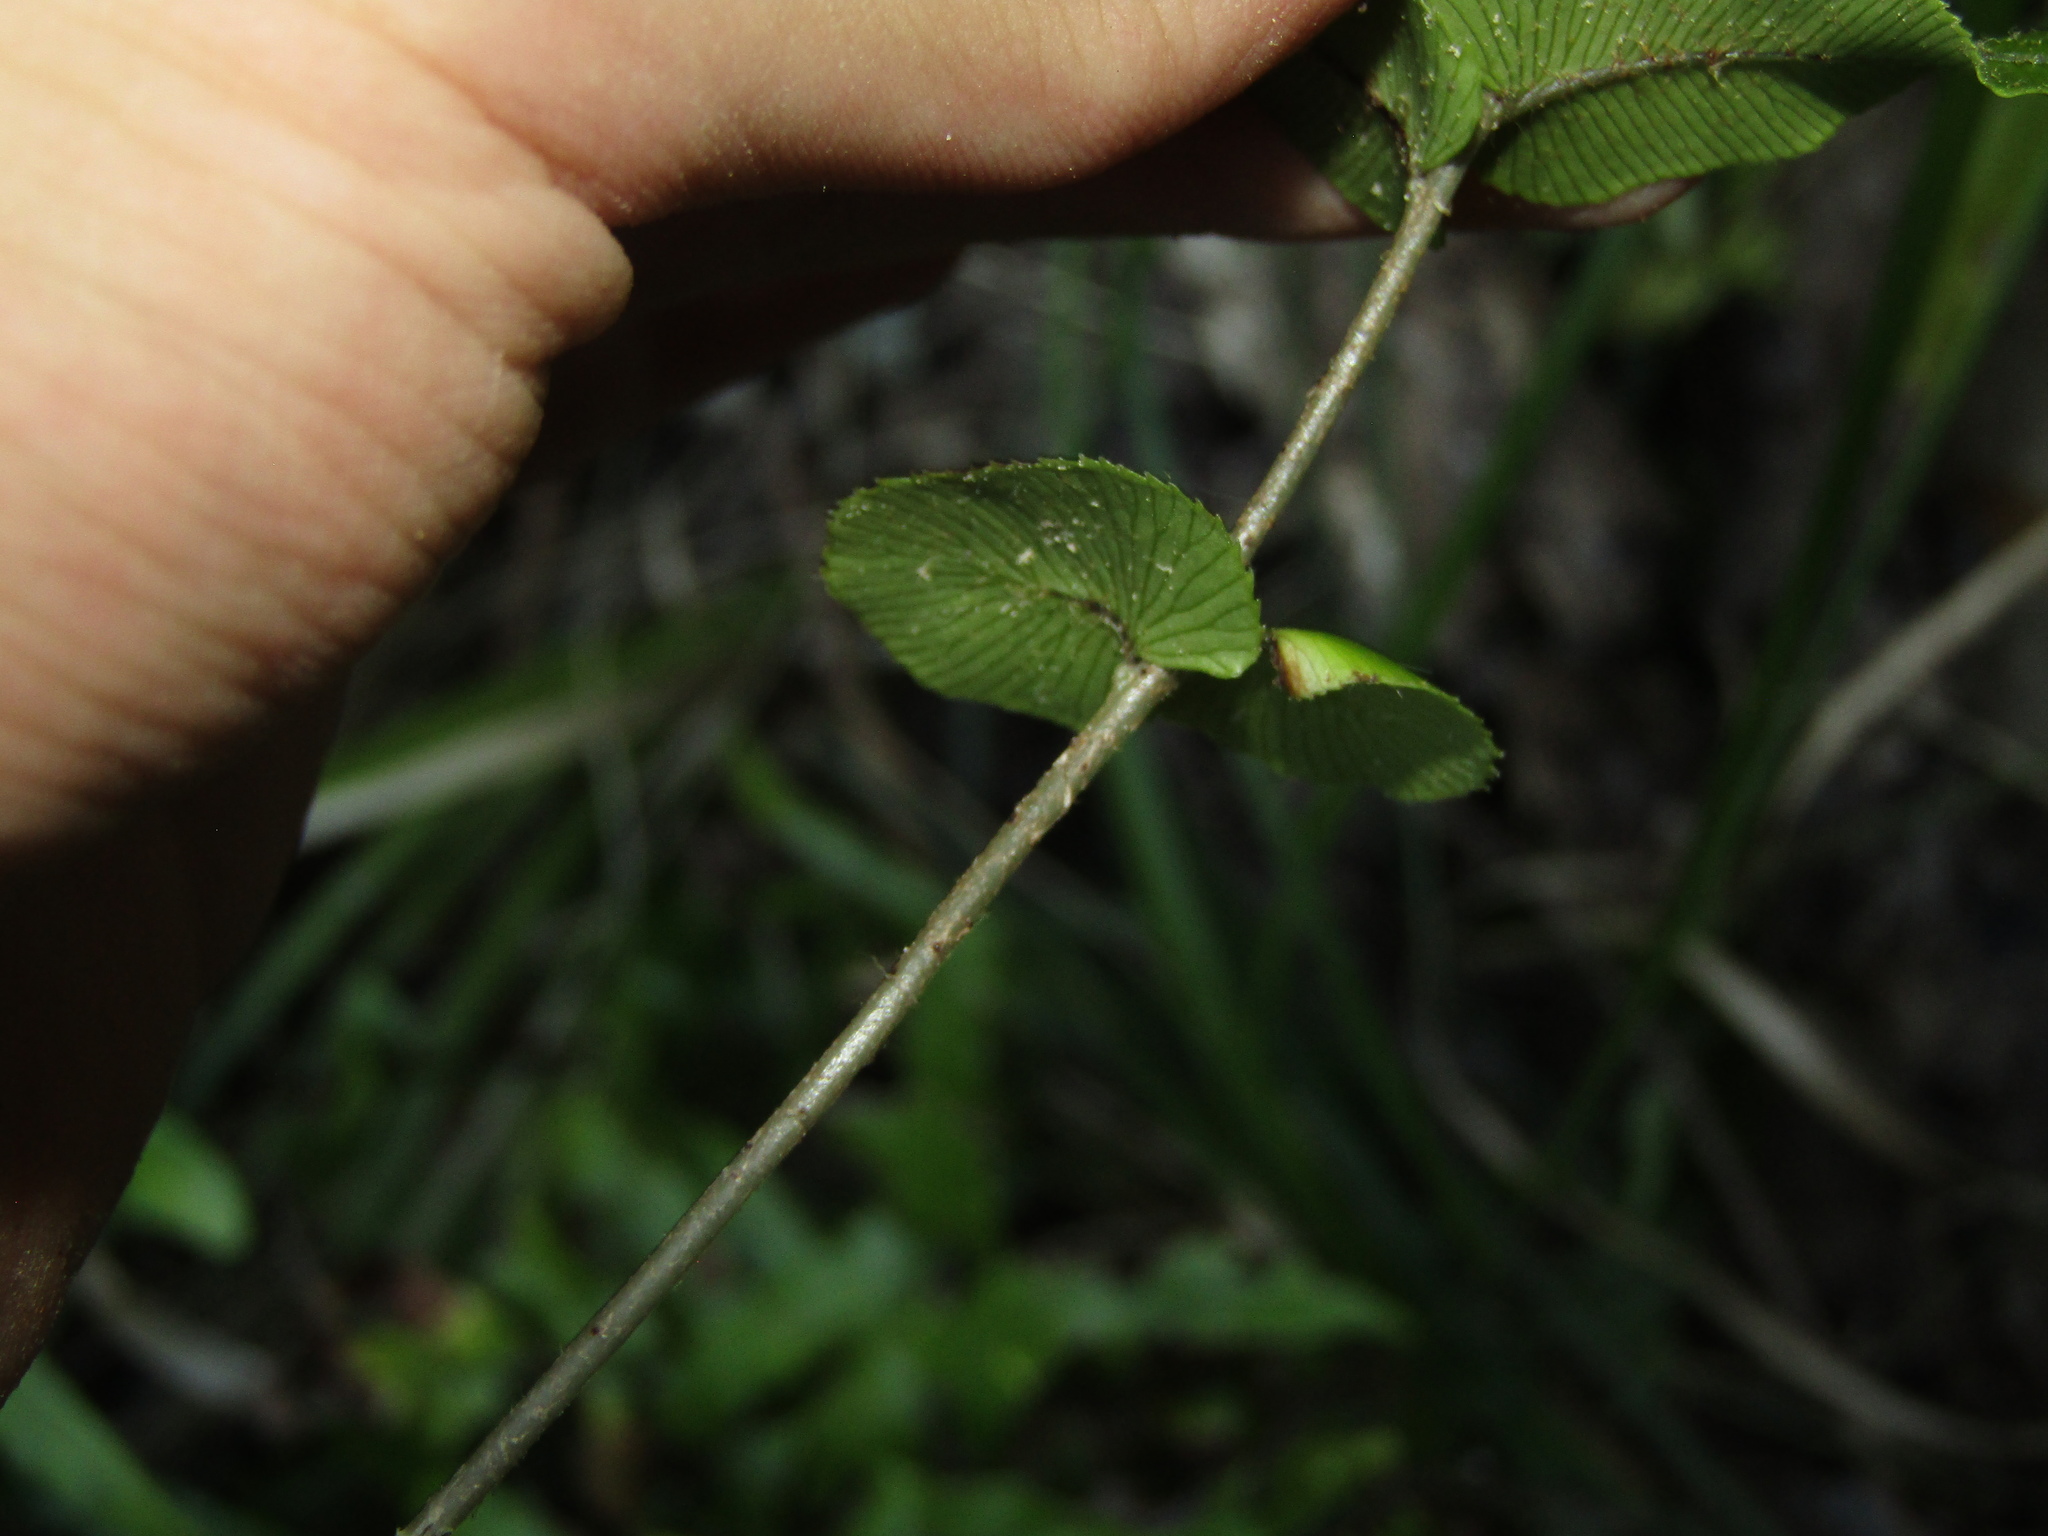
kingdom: Plantae
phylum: Tracheophyta
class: Polypodiopsida
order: Polypodiales
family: Blechnaceae
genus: Parablechnum
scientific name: Parablechnum novae-zelandiae
